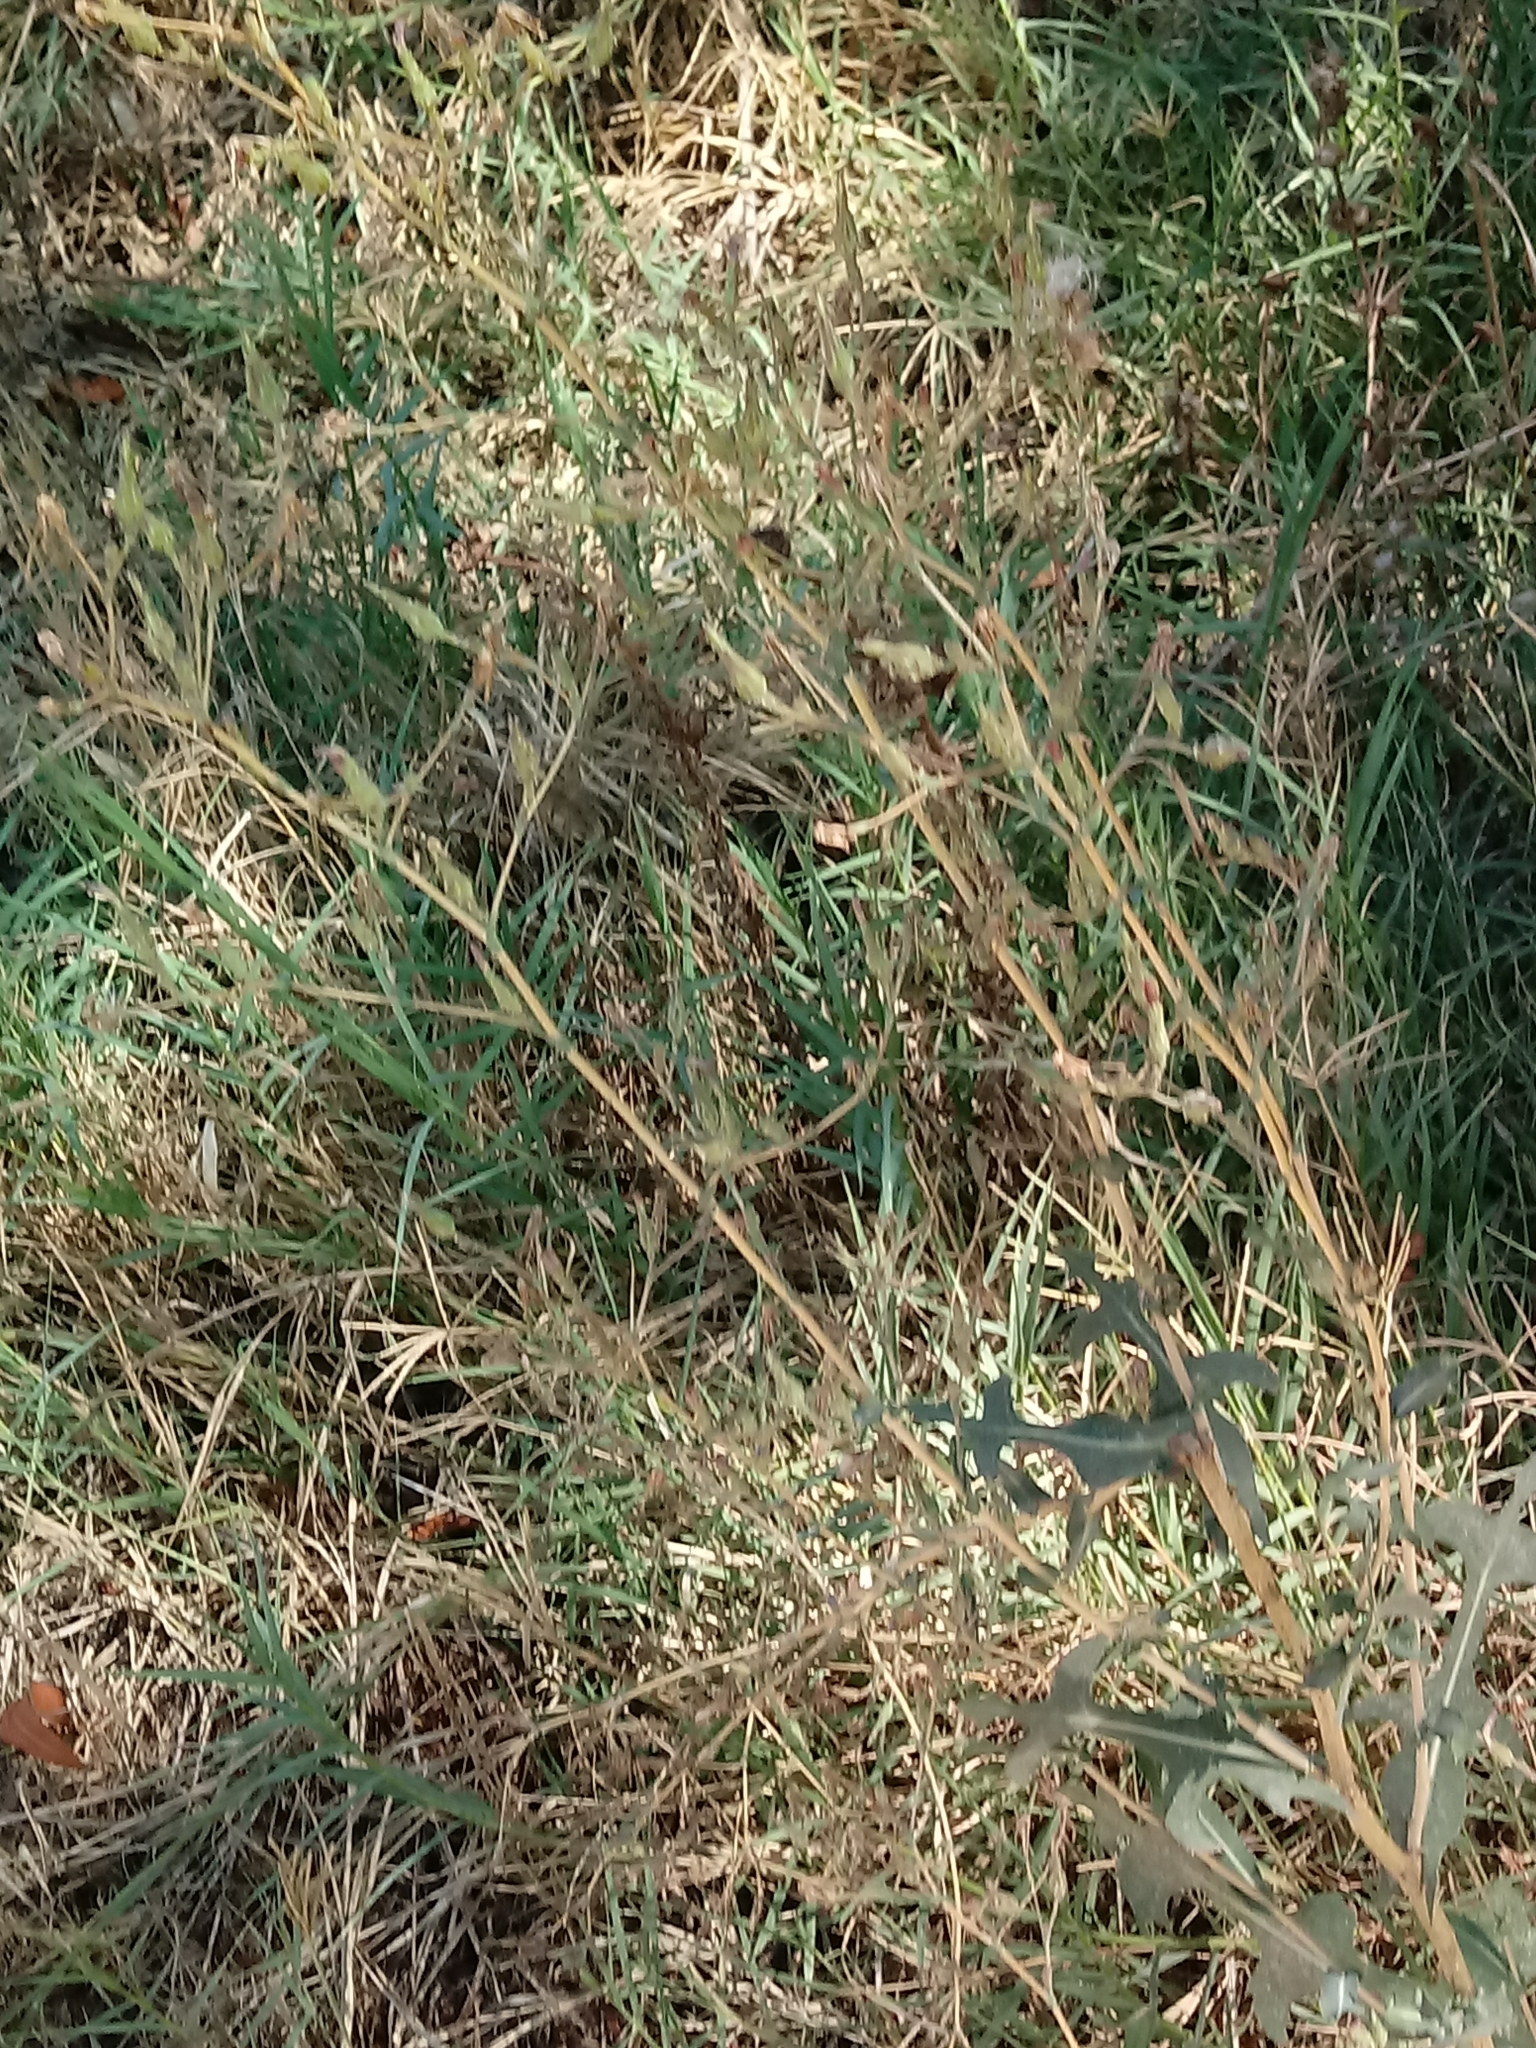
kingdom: Plantae
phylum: Tracheophyta
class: Magnoliopsida
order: Asterales
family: Asteraceae
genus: Lactuca
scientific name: Lactuca serriola
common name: Prickly lettuce
